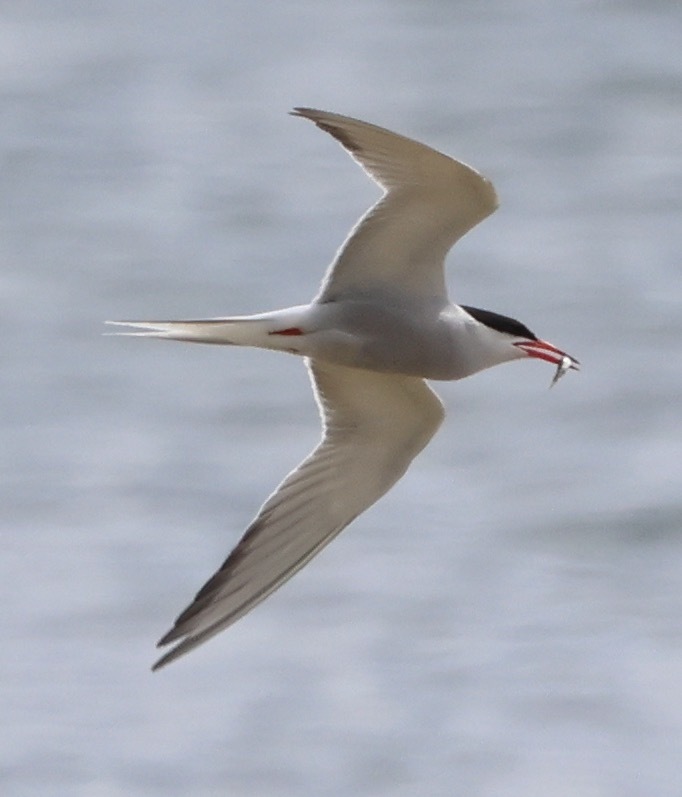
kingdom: Animalia
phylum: Chordata
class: Aves
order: Charadriiformes
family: Laridae
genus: Sterna
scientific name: Sterna hirundo
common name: Common tern
